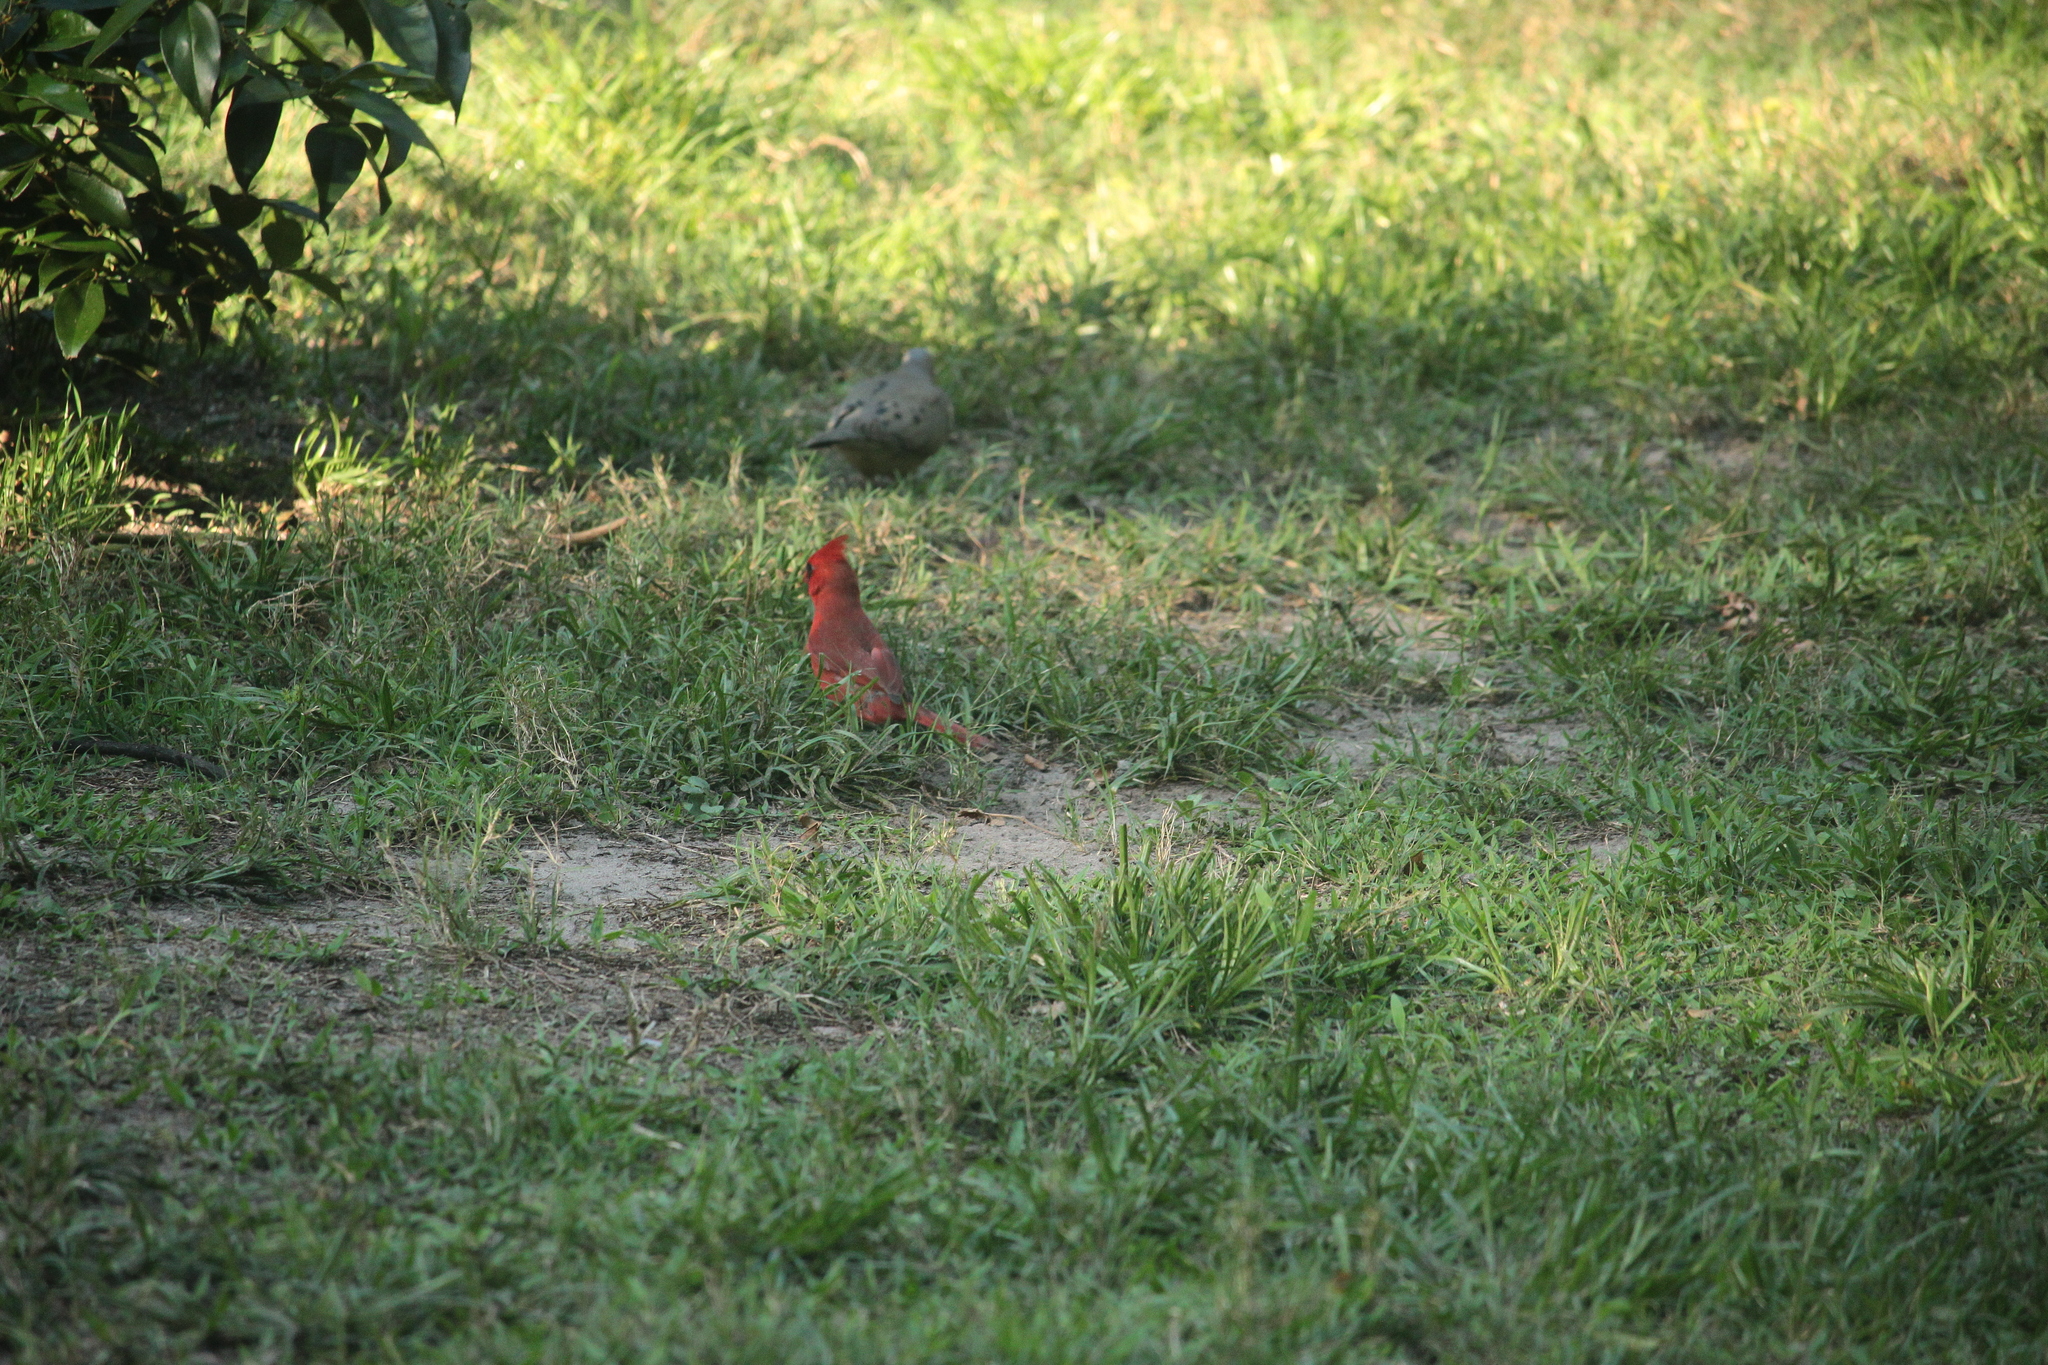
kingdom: Animalia
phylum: Chordata
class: Aves
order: Passeriformes
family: Cardinalidae
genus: Cardinalis
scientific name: Cardinalis cardinalis
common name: Northern cardinal
